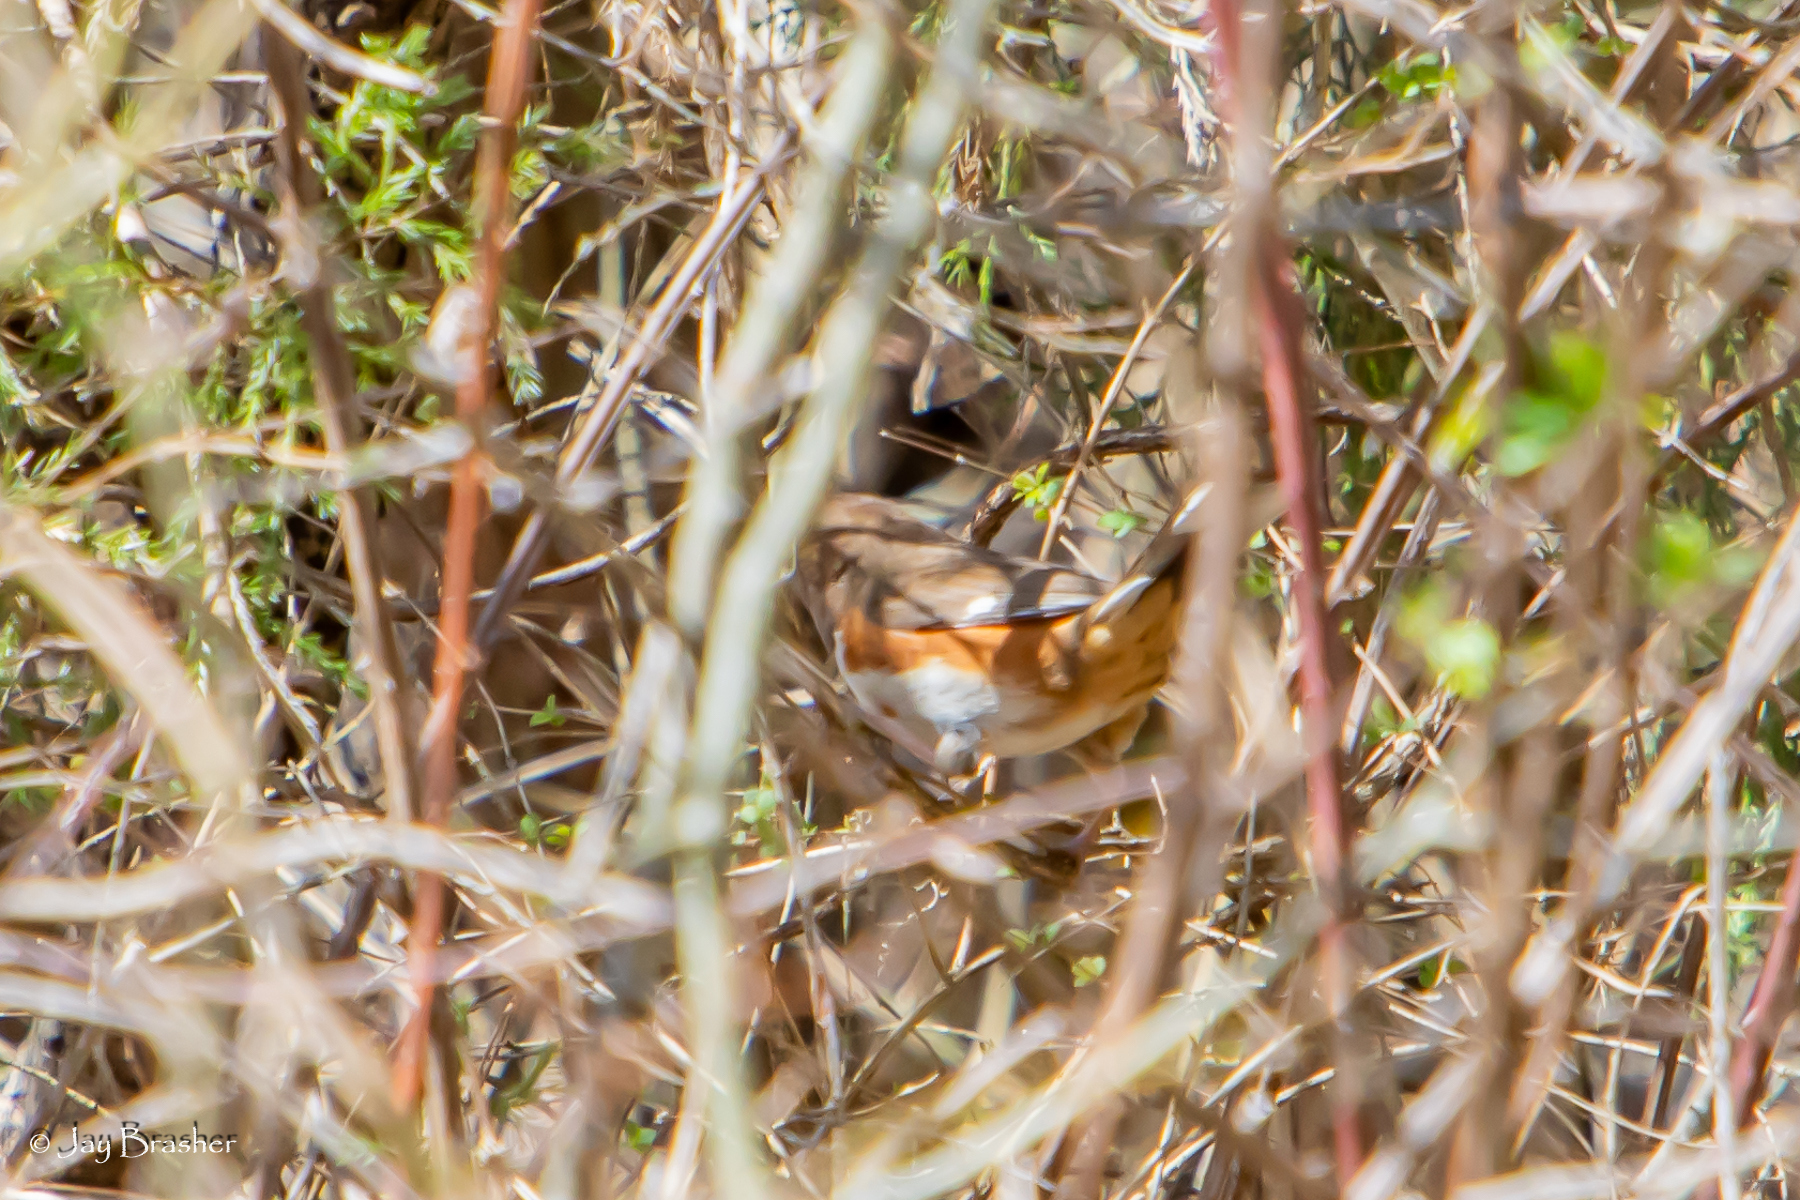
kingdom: Animalia
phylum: Chordata
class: Aves
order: Passeriformes
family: Passerellidae
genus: Pipilo
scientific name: Pipilo erythrophthalmus
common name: Eastern towhee
